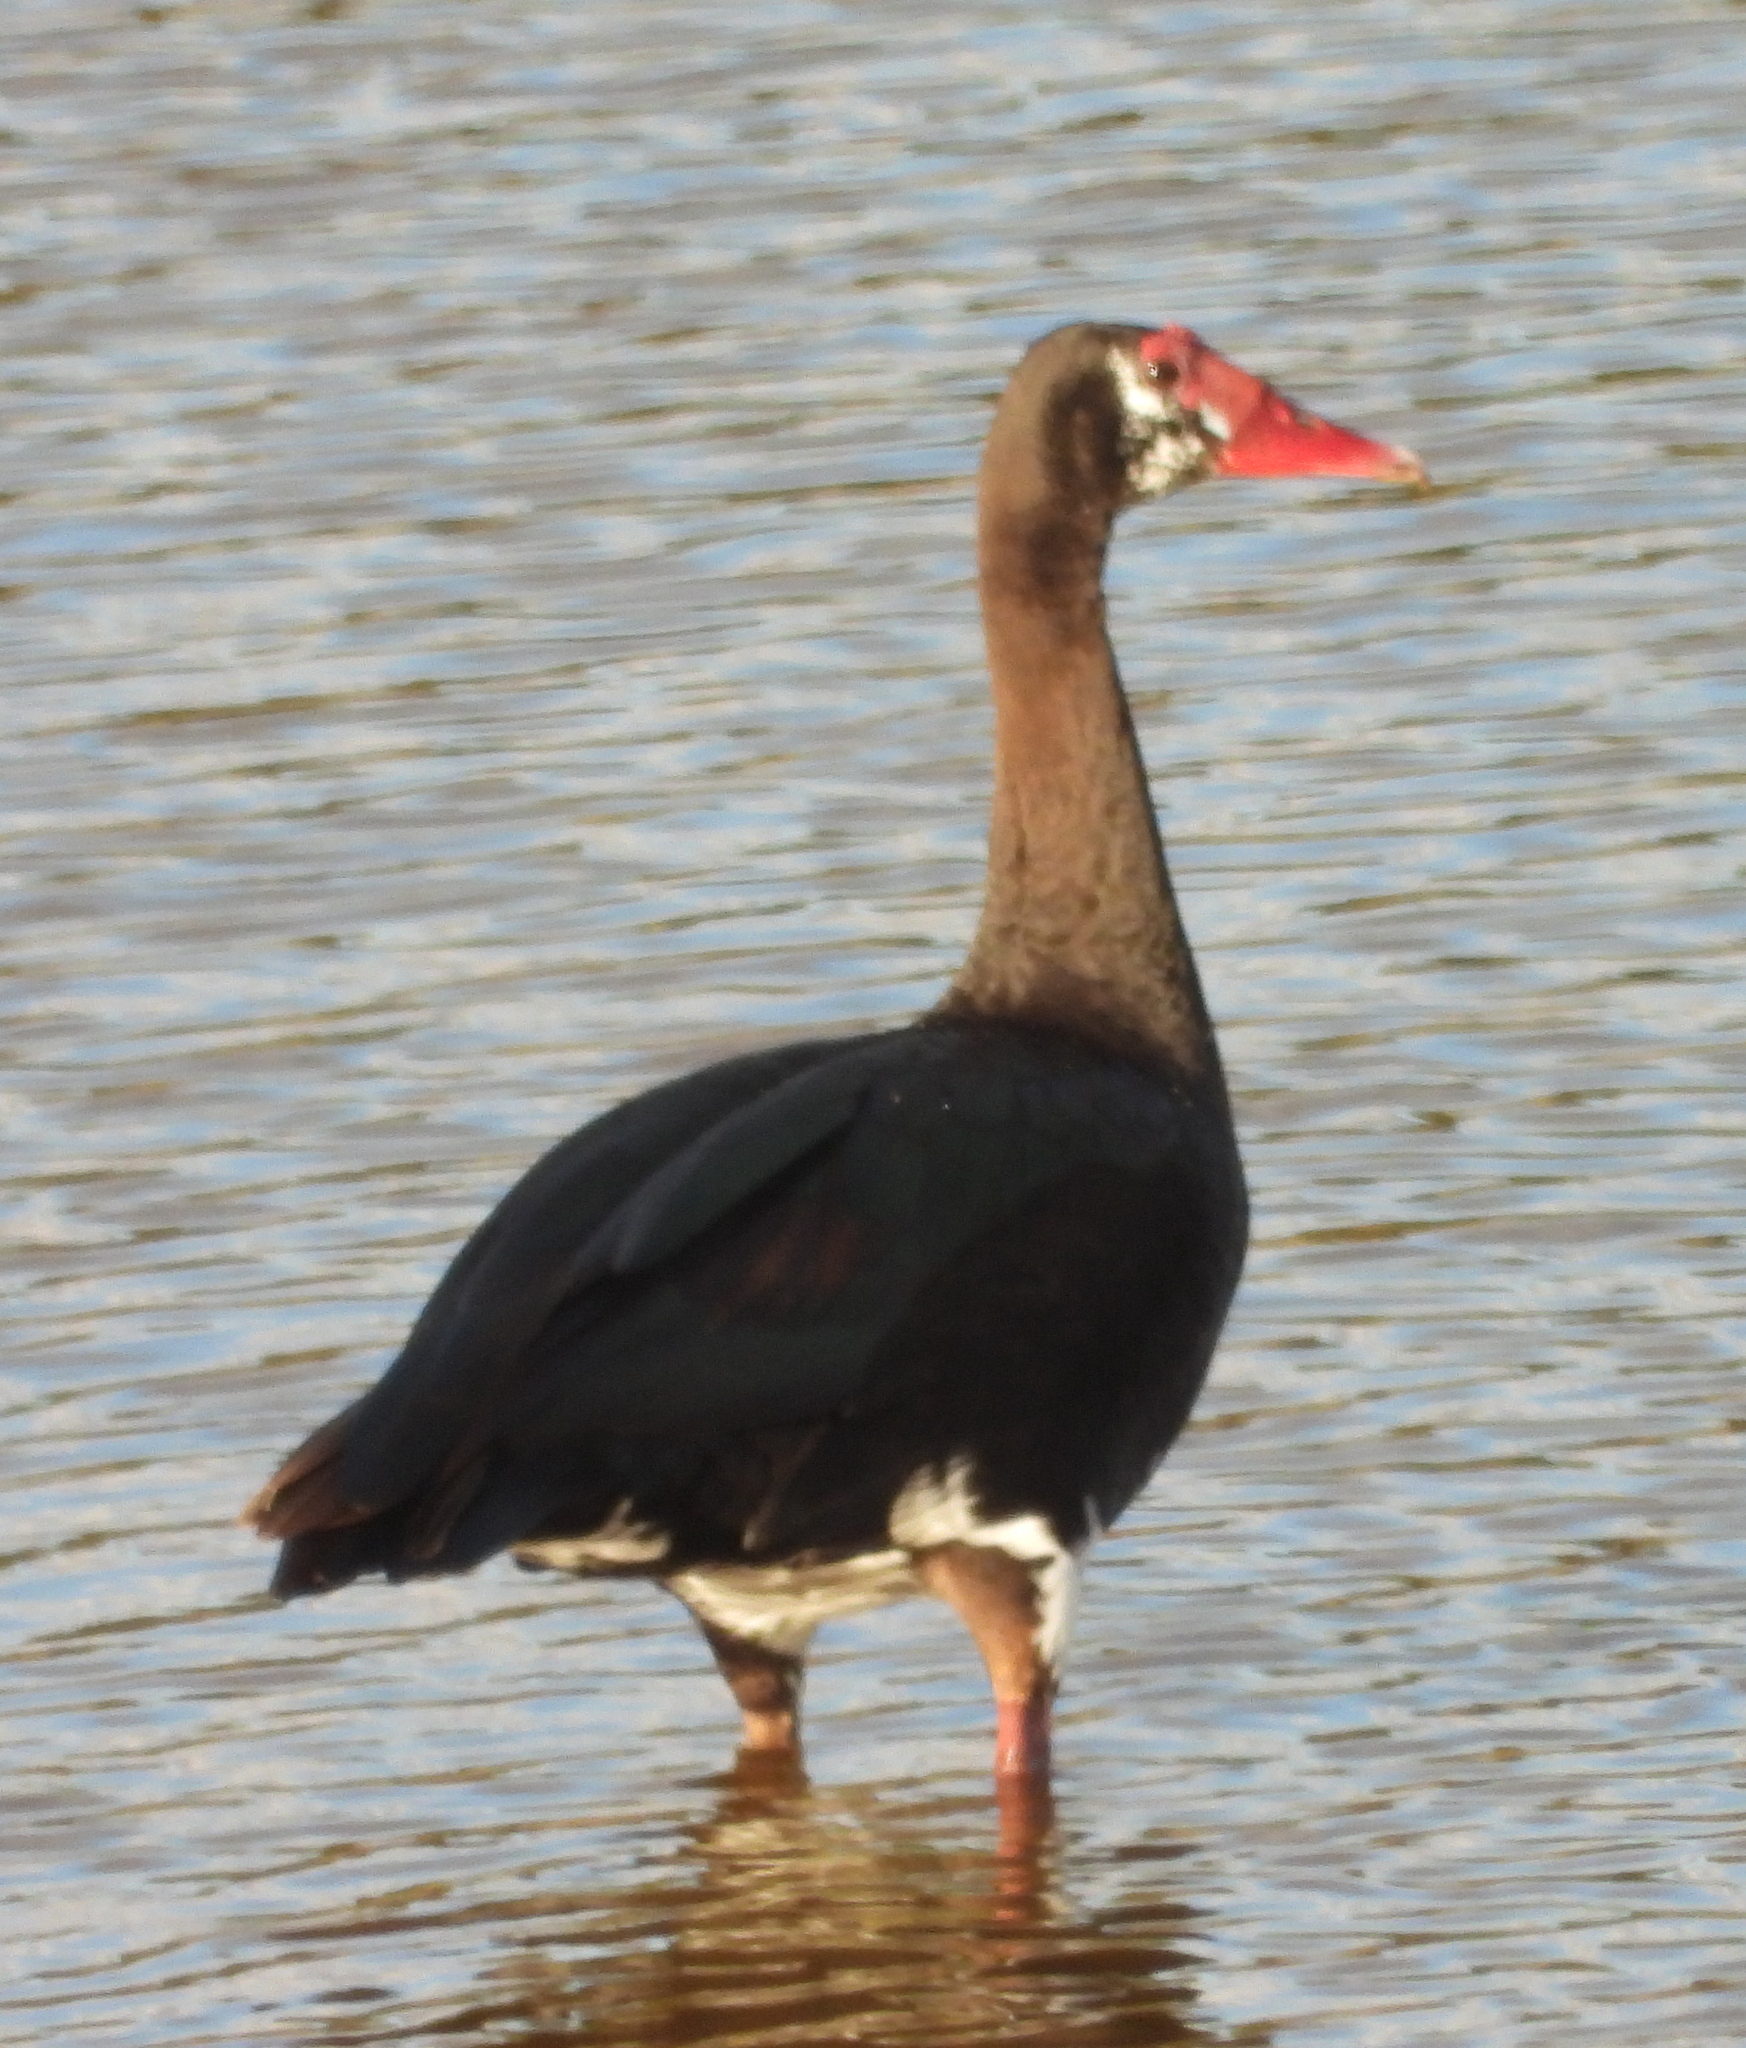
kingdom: Animalia
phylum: Chordata
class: Aves
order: Anseriformes
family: Anatidae
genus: Plectropterus
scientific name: Plectropterus gambensis
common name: Spur-winged goose
